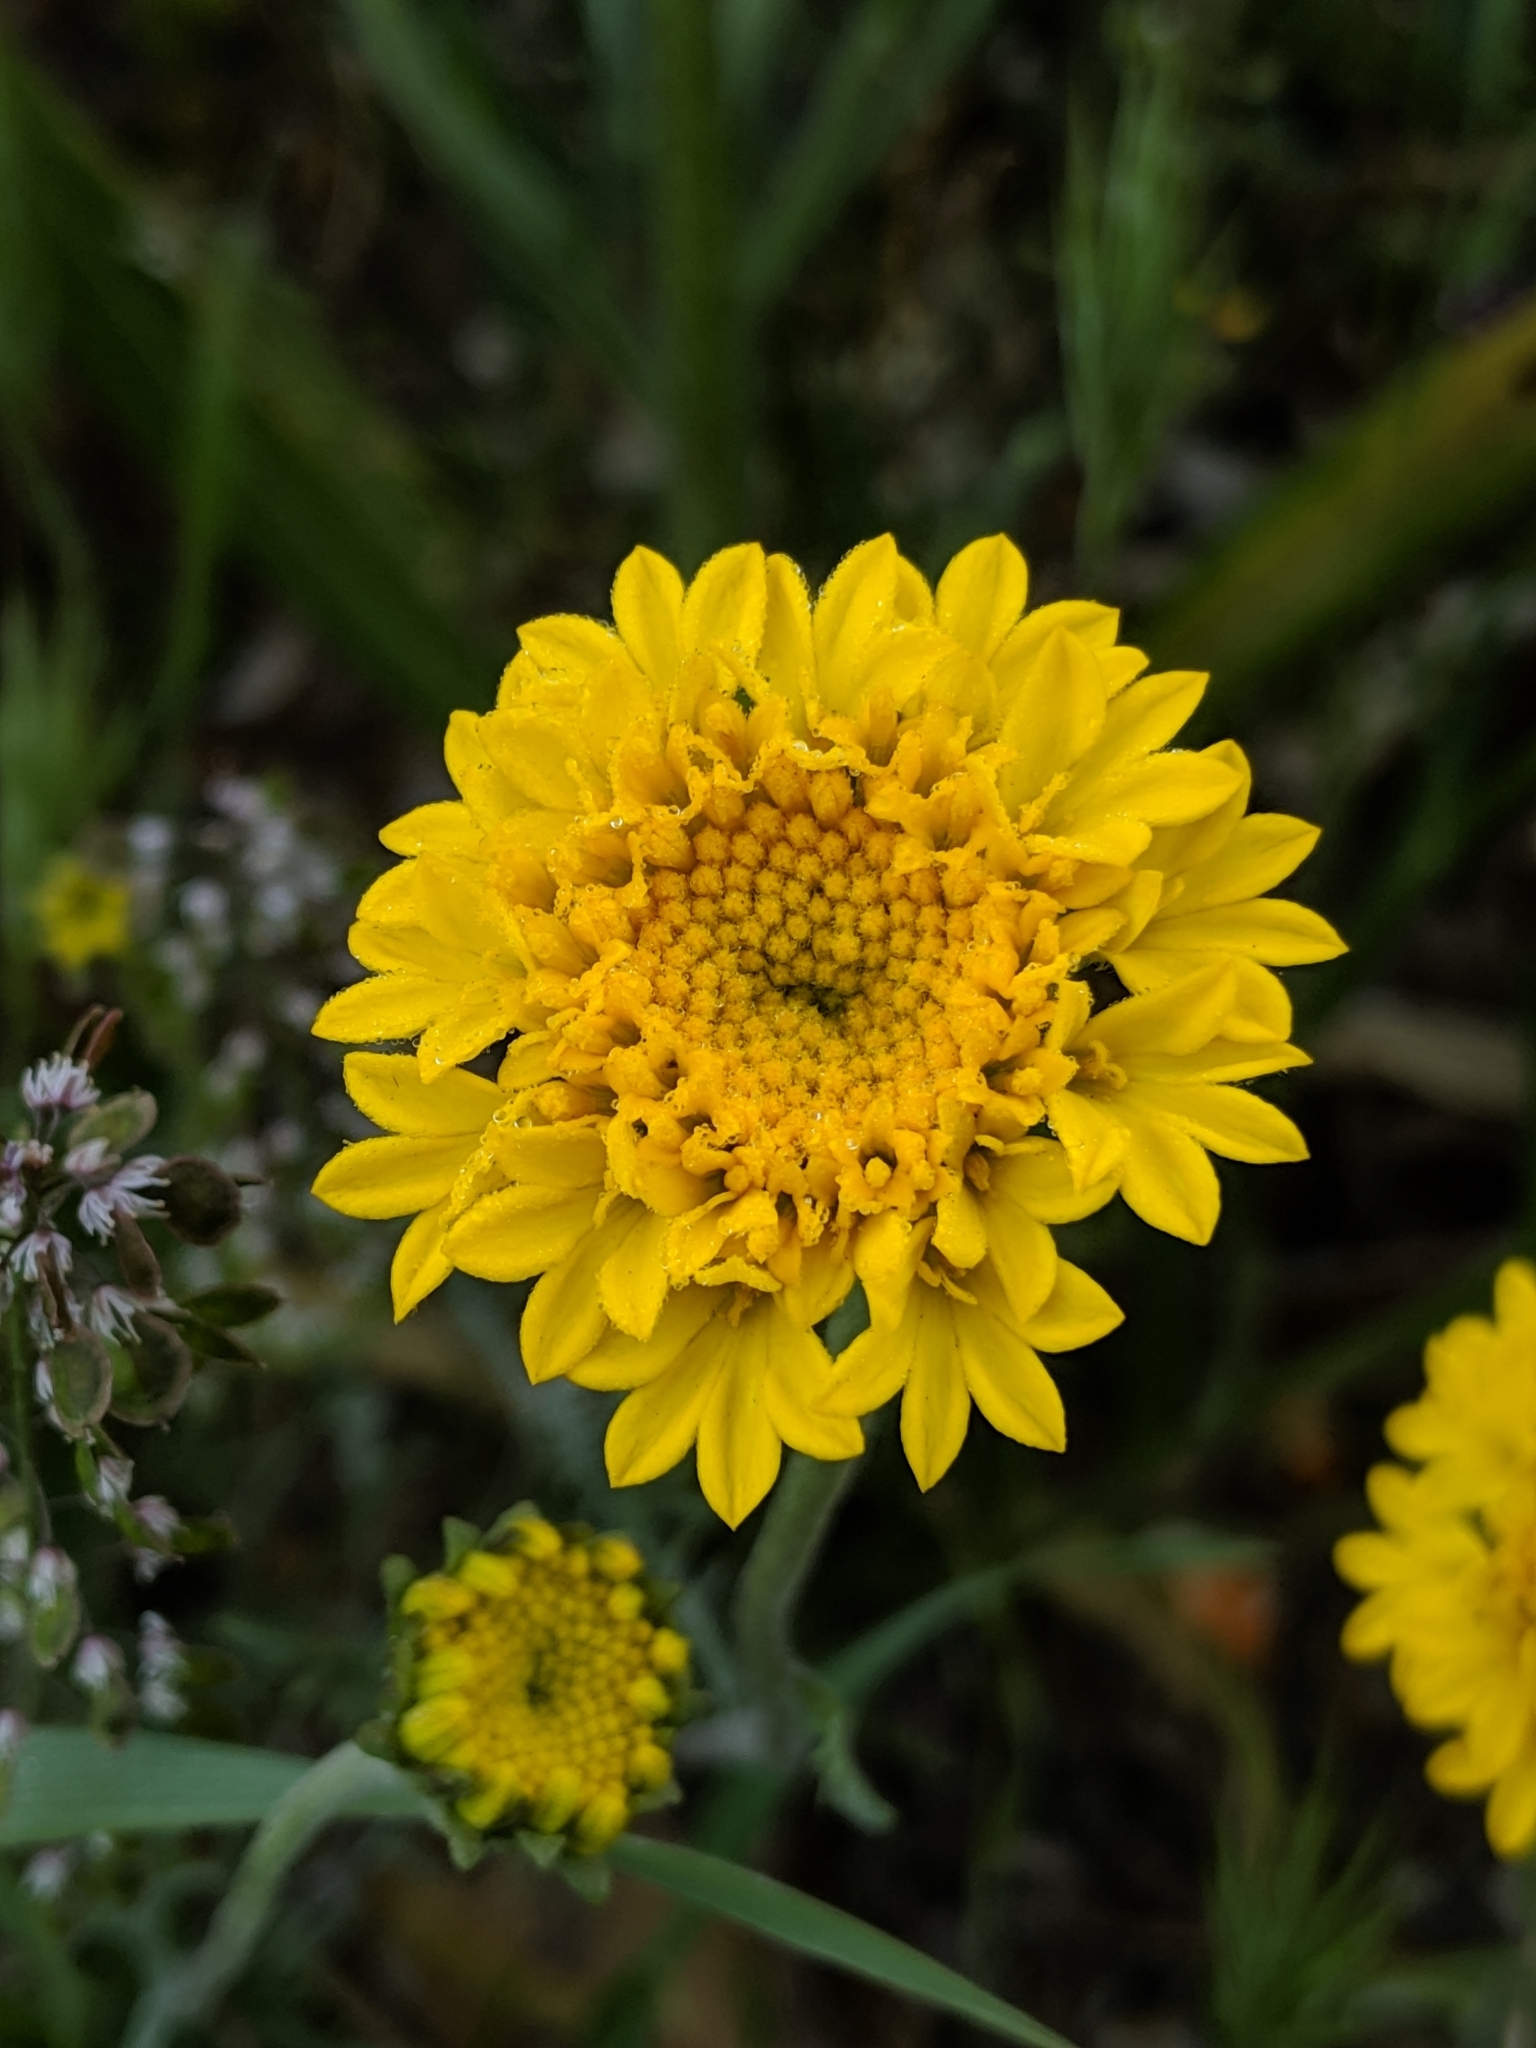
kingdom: Plantae
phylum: Tracheophyta
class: Magnoliopsida
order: Asterales
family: Asteraceae
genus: Chaenactis
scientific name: Chaenactis glabriuscula
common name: Yellow pincushion
